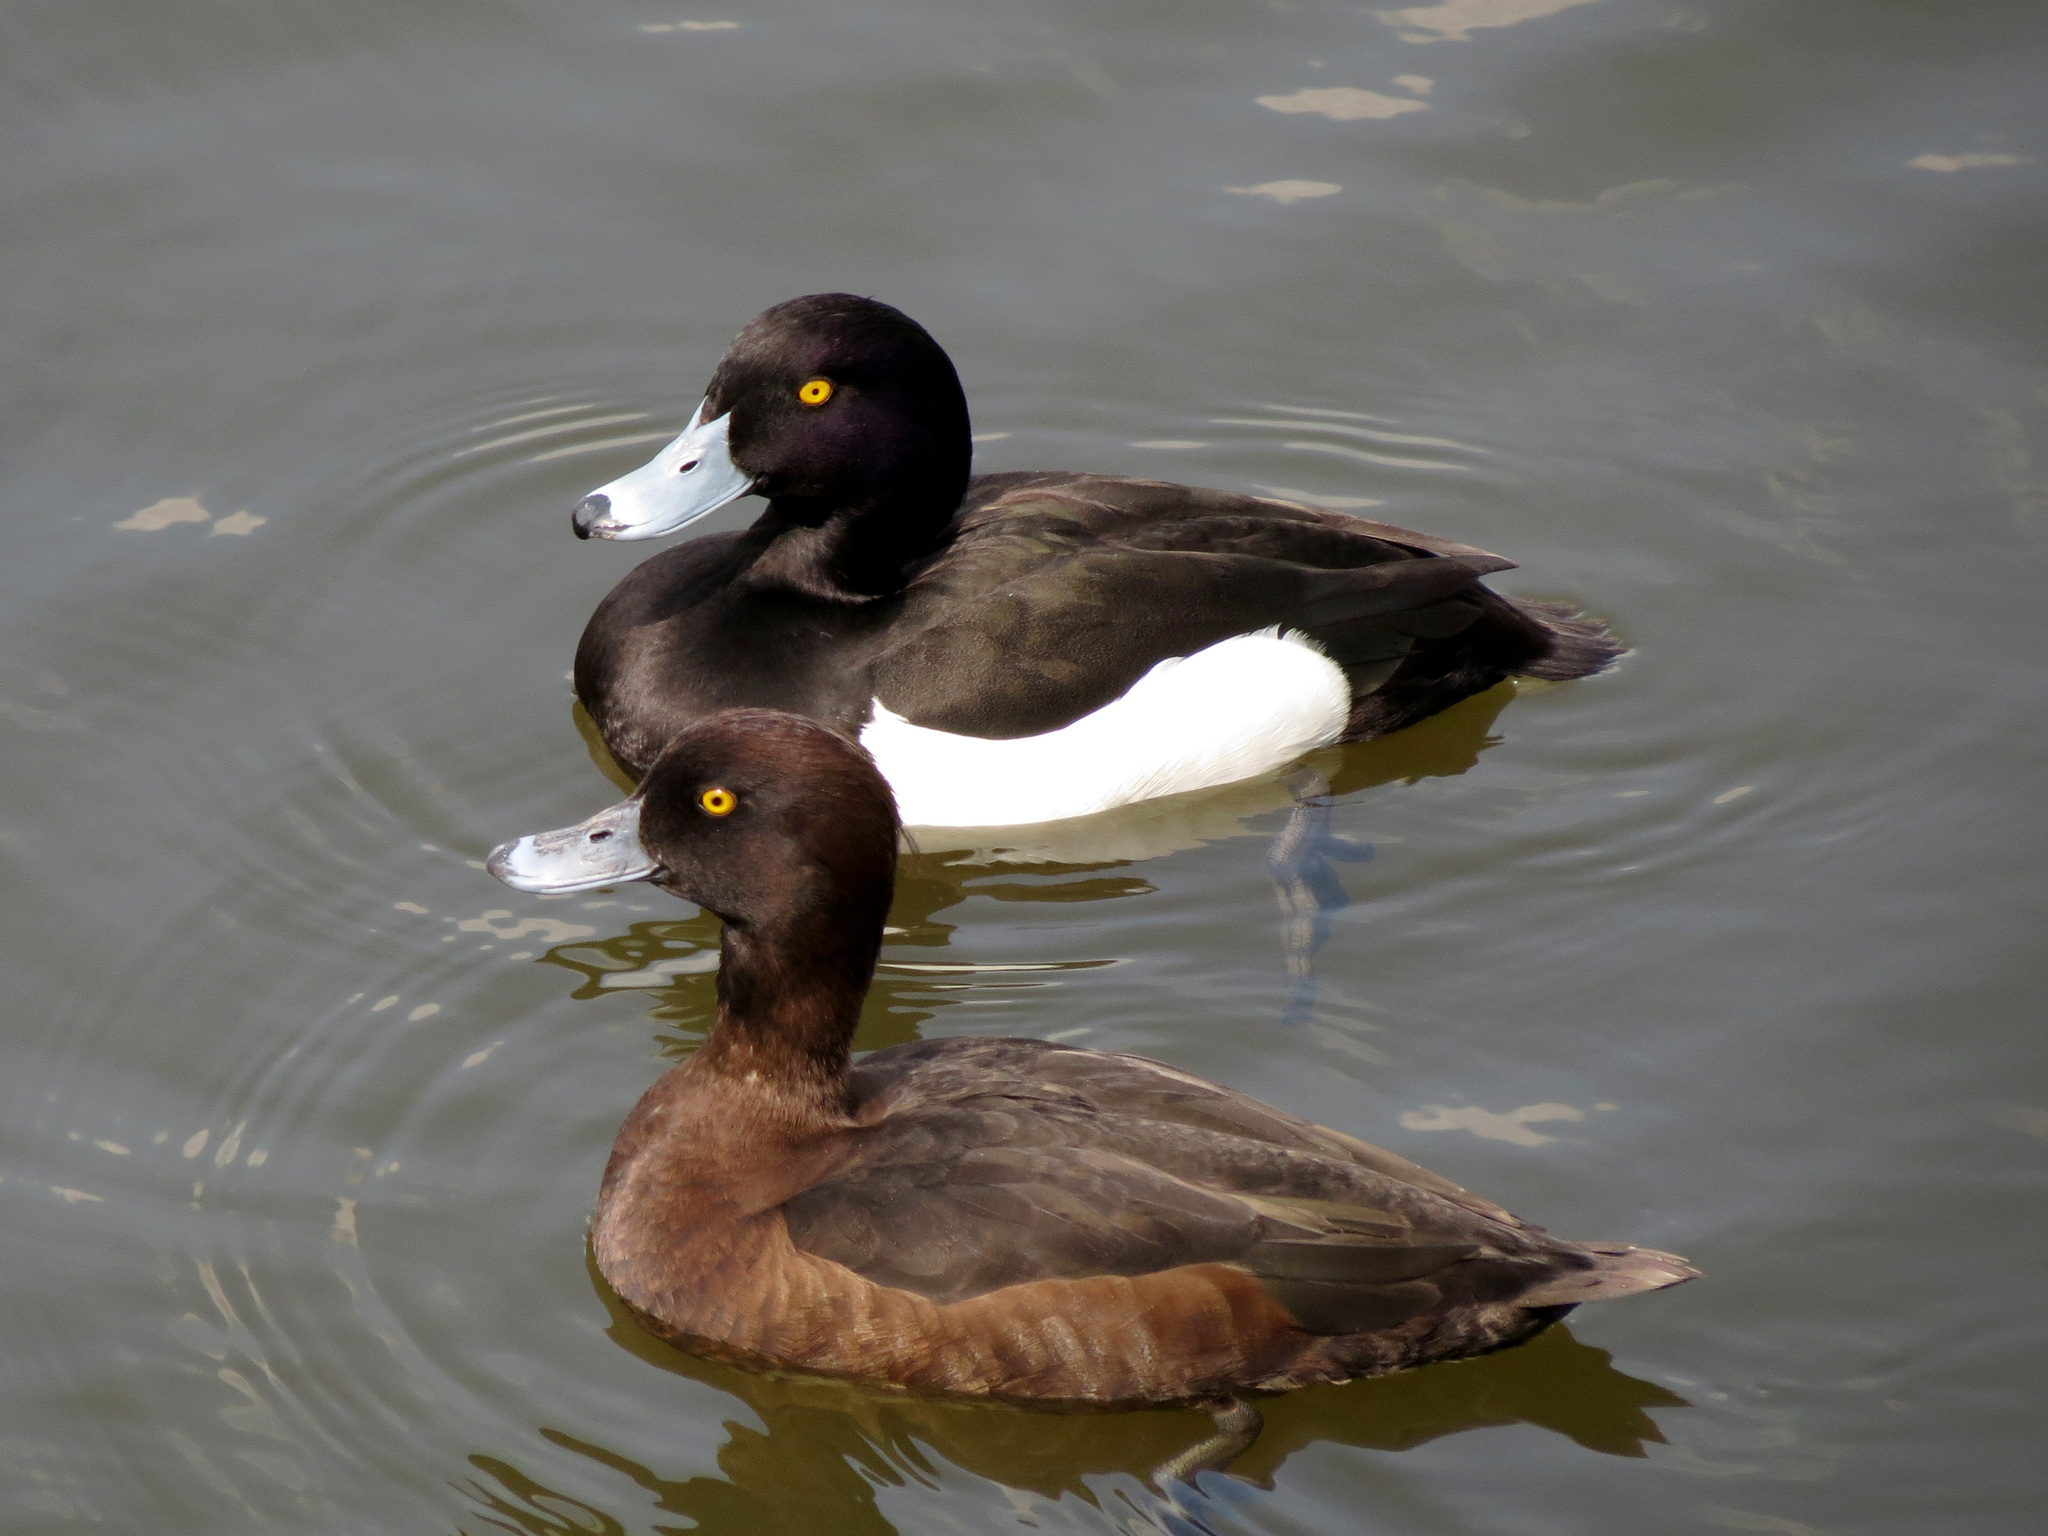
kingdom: Animalia
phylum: Chordata
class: Aves
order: Anseriformes
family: Anatidae
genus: Aythya
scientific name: Aythya fuligula
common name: Tufted duck
